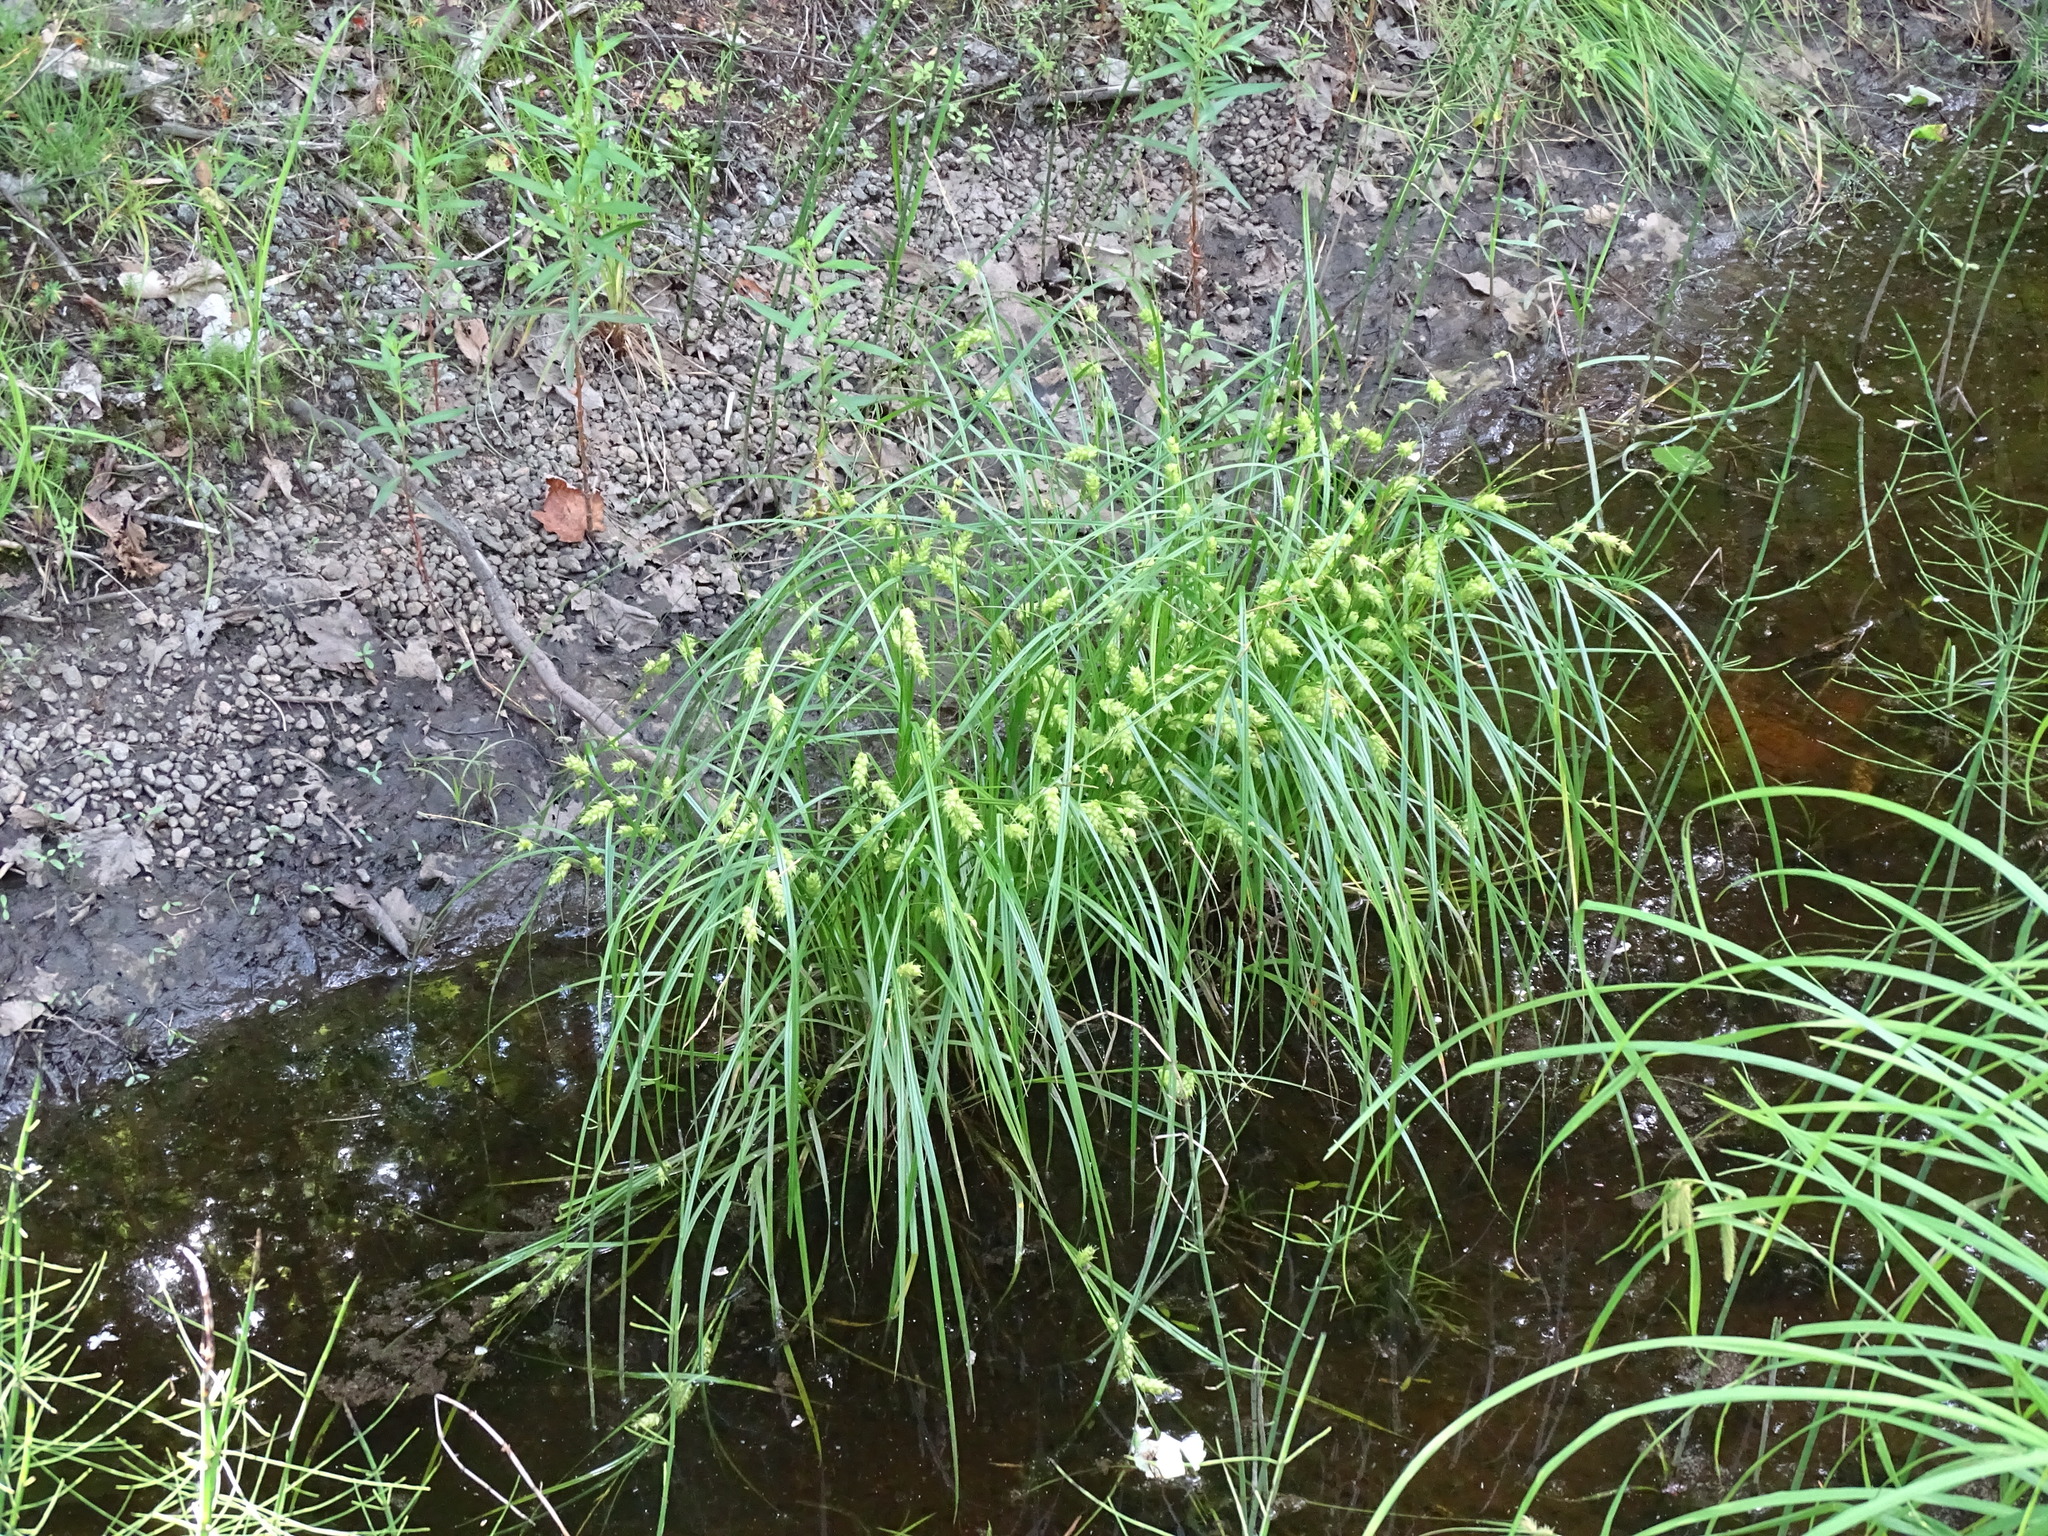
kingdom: Plantae
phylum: Tracheophyta
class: Liliopsida
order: Poales
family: Cyperaceae
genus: Carex
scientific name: Carex tuckermanii
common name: Tuckerman's sedge
